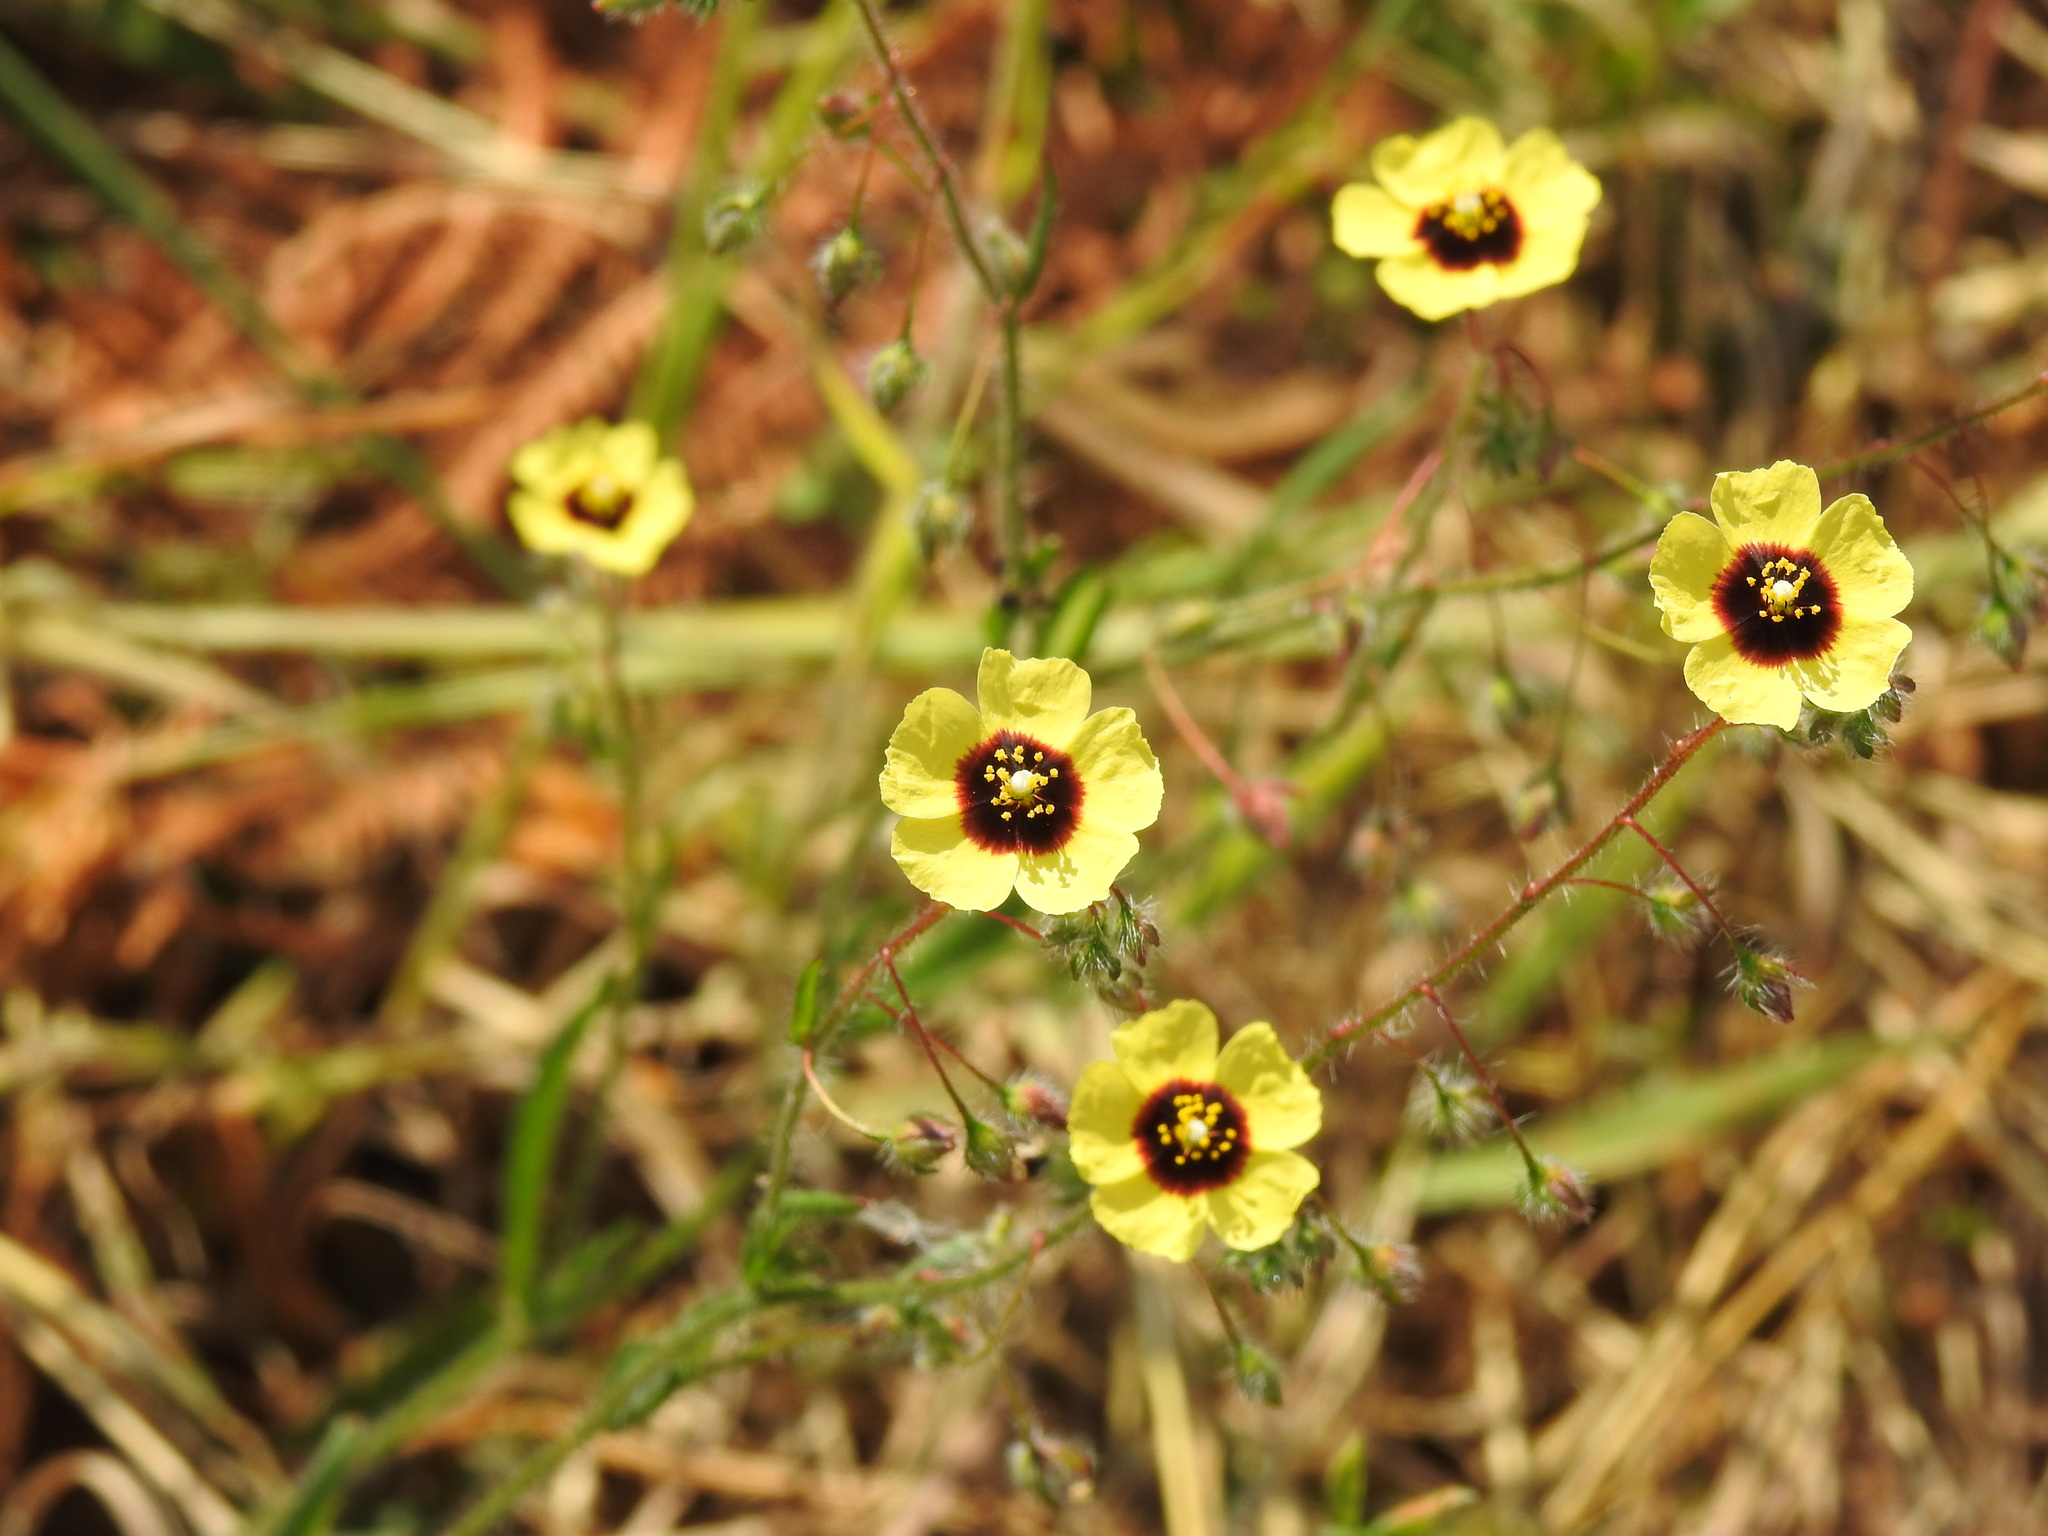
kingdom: Plantae
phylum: Tracheophyta
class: Magnoliopsida
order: Malvales
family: Cistaceae
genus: Tuberaria
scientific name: Tuberaria guttata
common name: Spotted rock-rose
